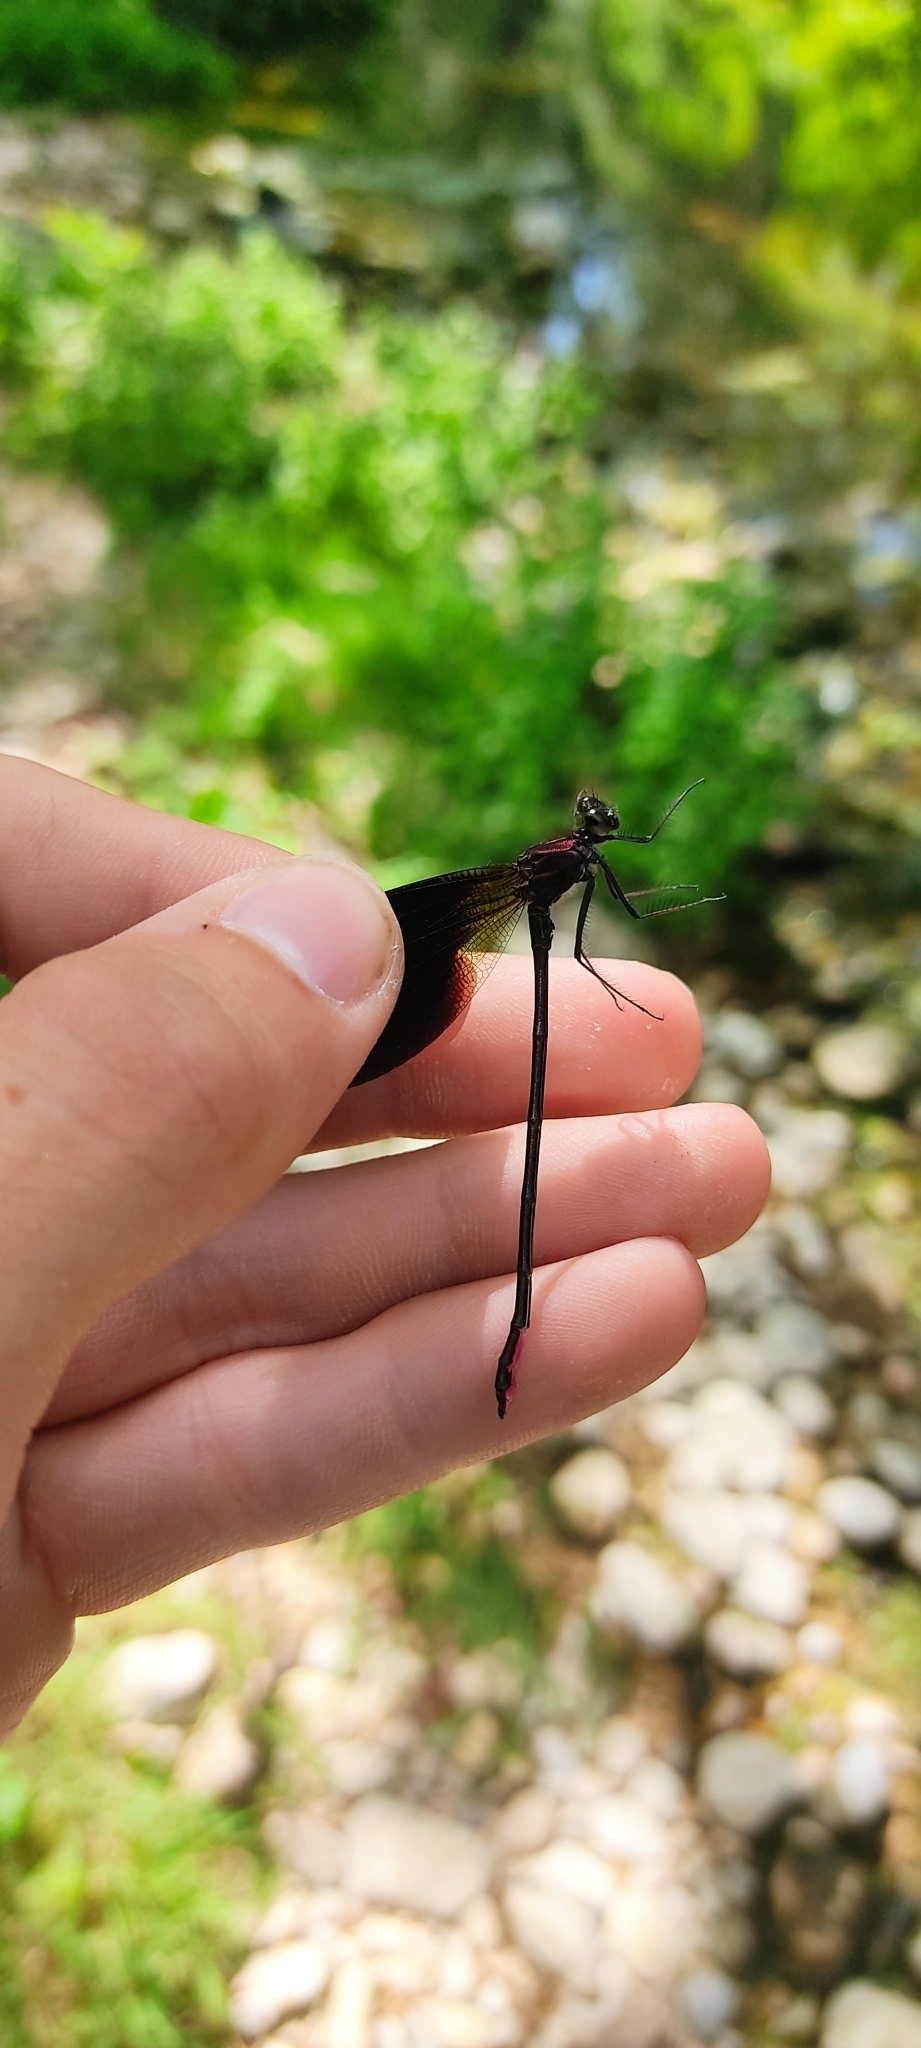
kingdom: Animalia
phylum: Arthropoda
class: Insecta
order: Odonata
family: Calopterygidae
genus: Calopteryx
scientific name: Calopteryx haemorrhoidalis
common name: Copper demoiselle
